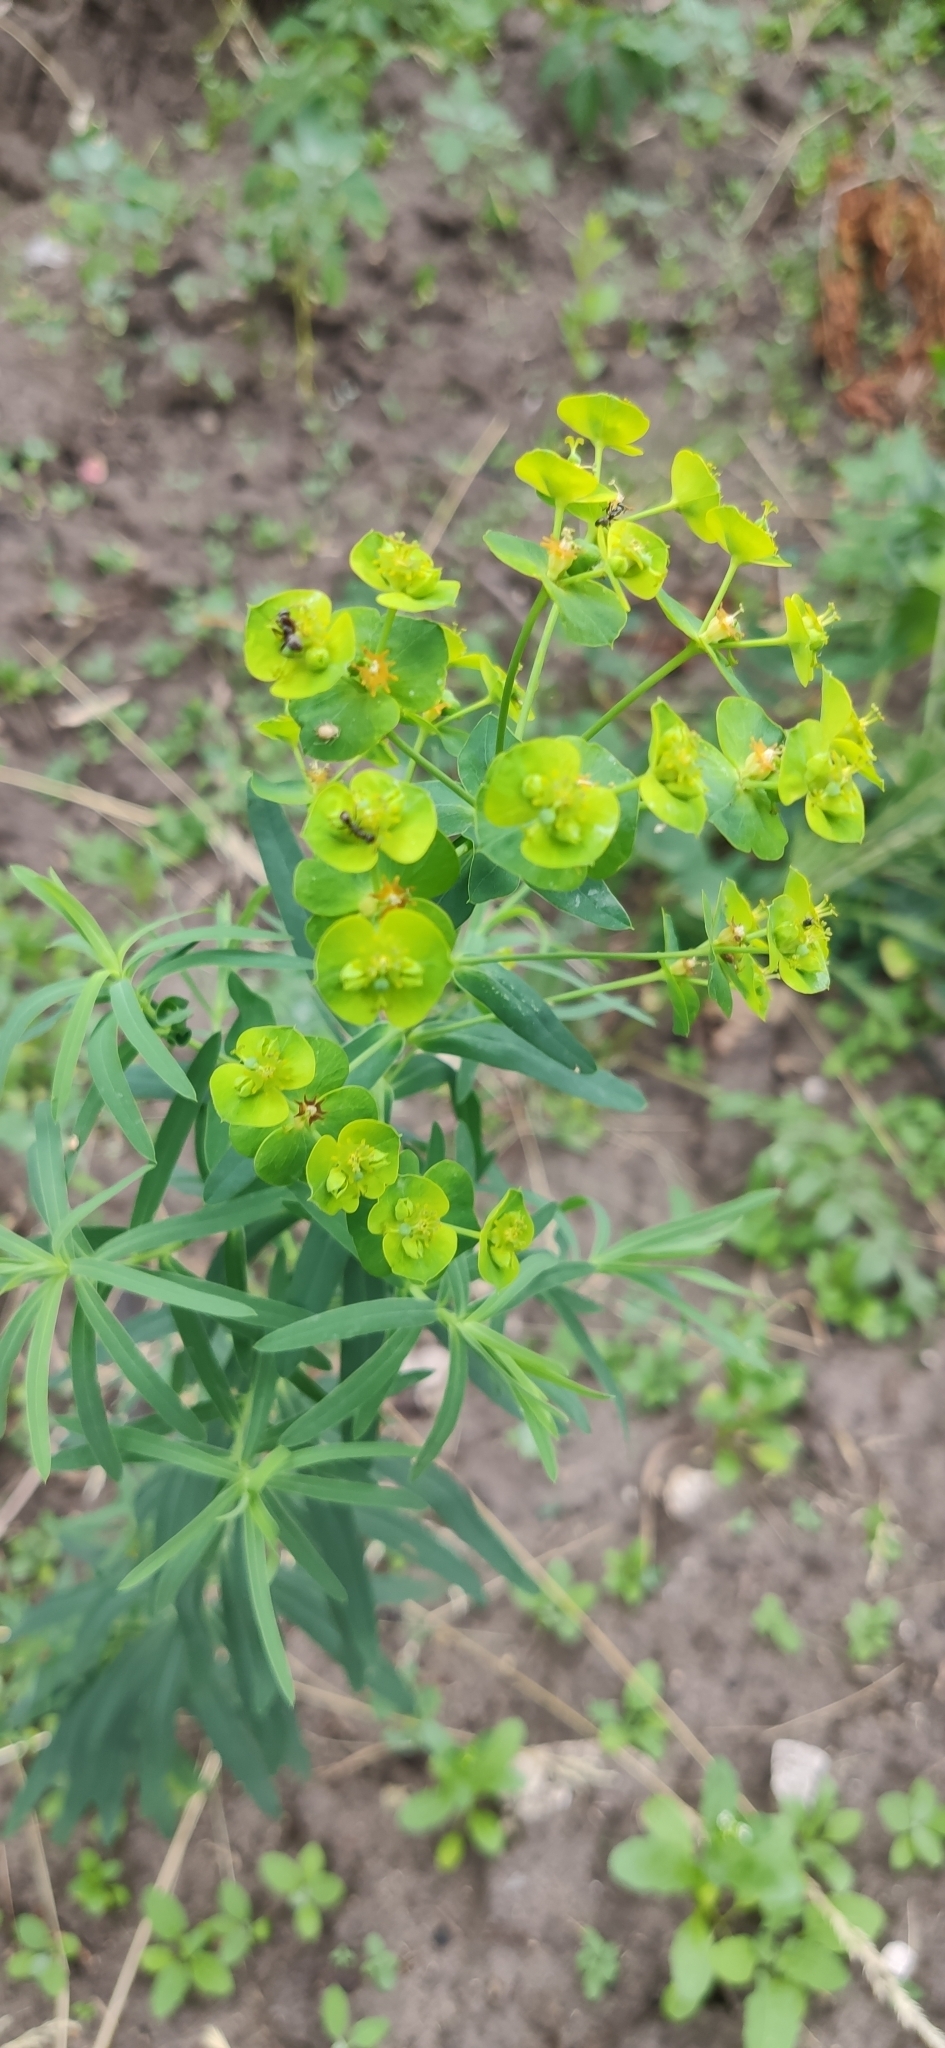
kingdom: Plantae
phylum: Tracheophyta
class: Magnoliopsida
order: Malpighiales
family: Euphorbiaceae
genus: Euphorbia
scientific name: Euphorbia virgata
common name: Leafy spurge
